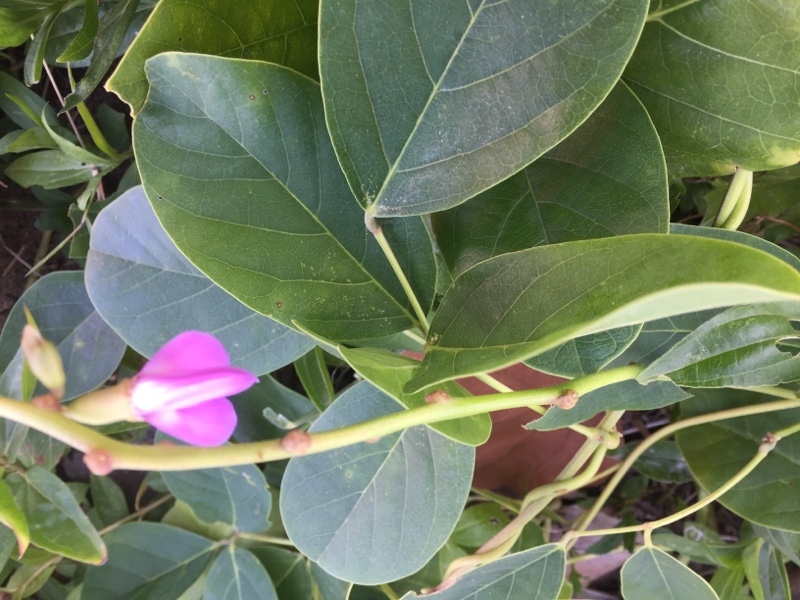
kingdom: Plantae
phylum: Tracheophyta
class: Magnoliopsida
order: Fabales
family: Fabaceae
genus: Canavalia
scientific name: Canavalia rosea
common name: Beach-bean
